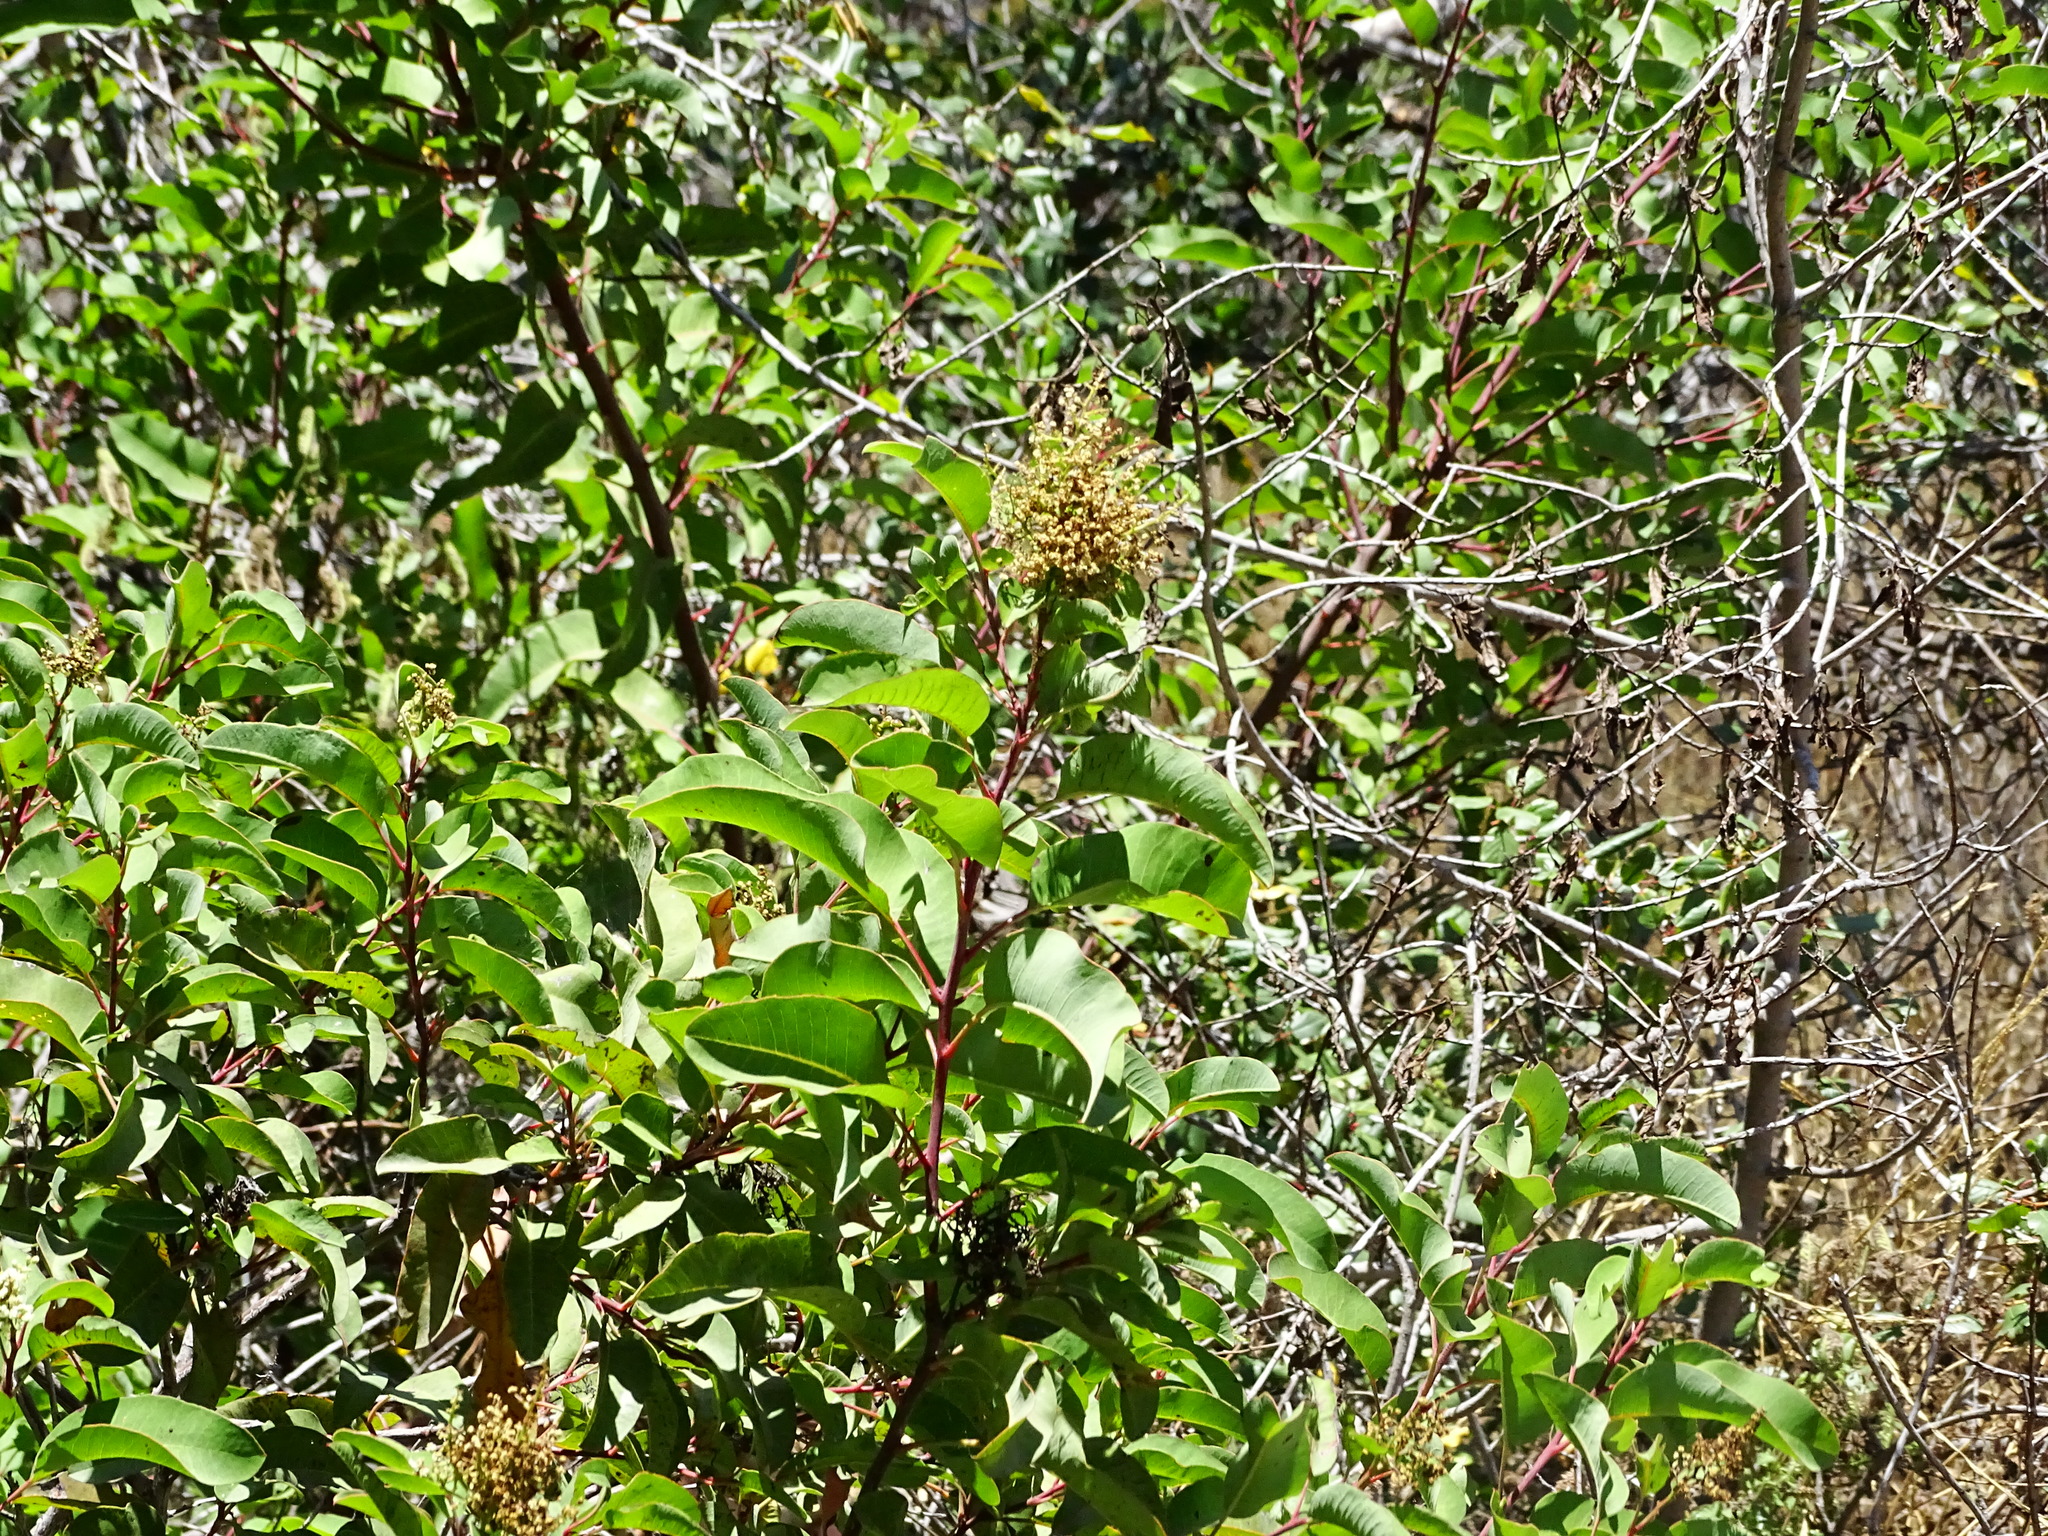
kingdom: Plantae
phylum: Tracheophyta
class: Magnoliopsida
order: Sapindales
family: Anacardiaceae
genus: Malosma
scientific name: Malosma laurina
